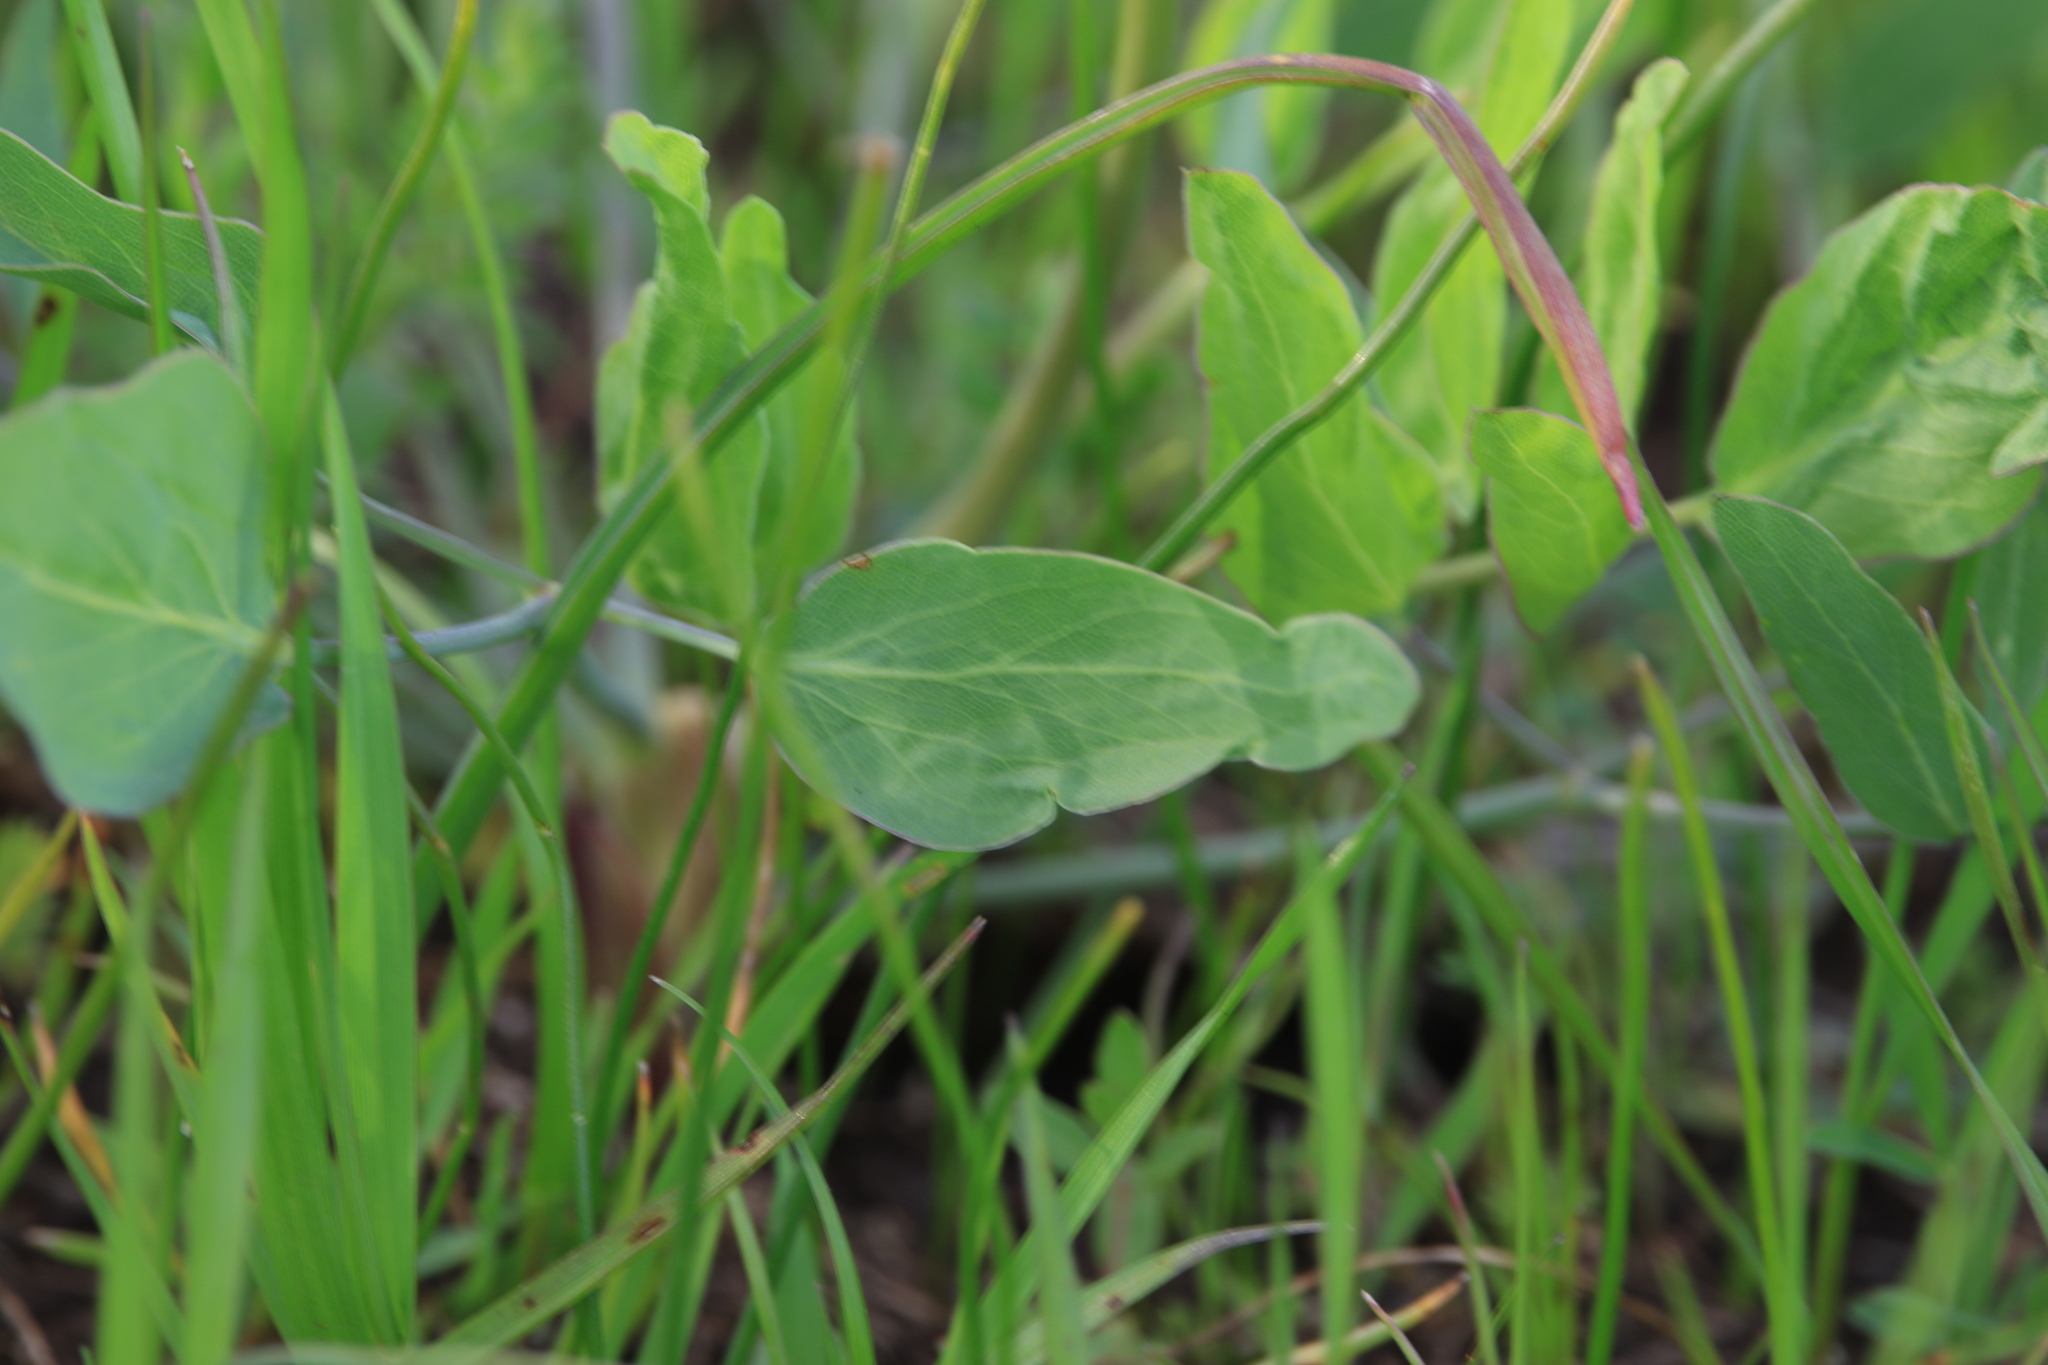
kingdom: Plantae
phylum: Tracheophyta
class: Magnoliopsida
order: Apiales
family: Apiaceae
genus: Lomatium
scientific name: Lomatium nudicaule
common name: Pestle lomatium
